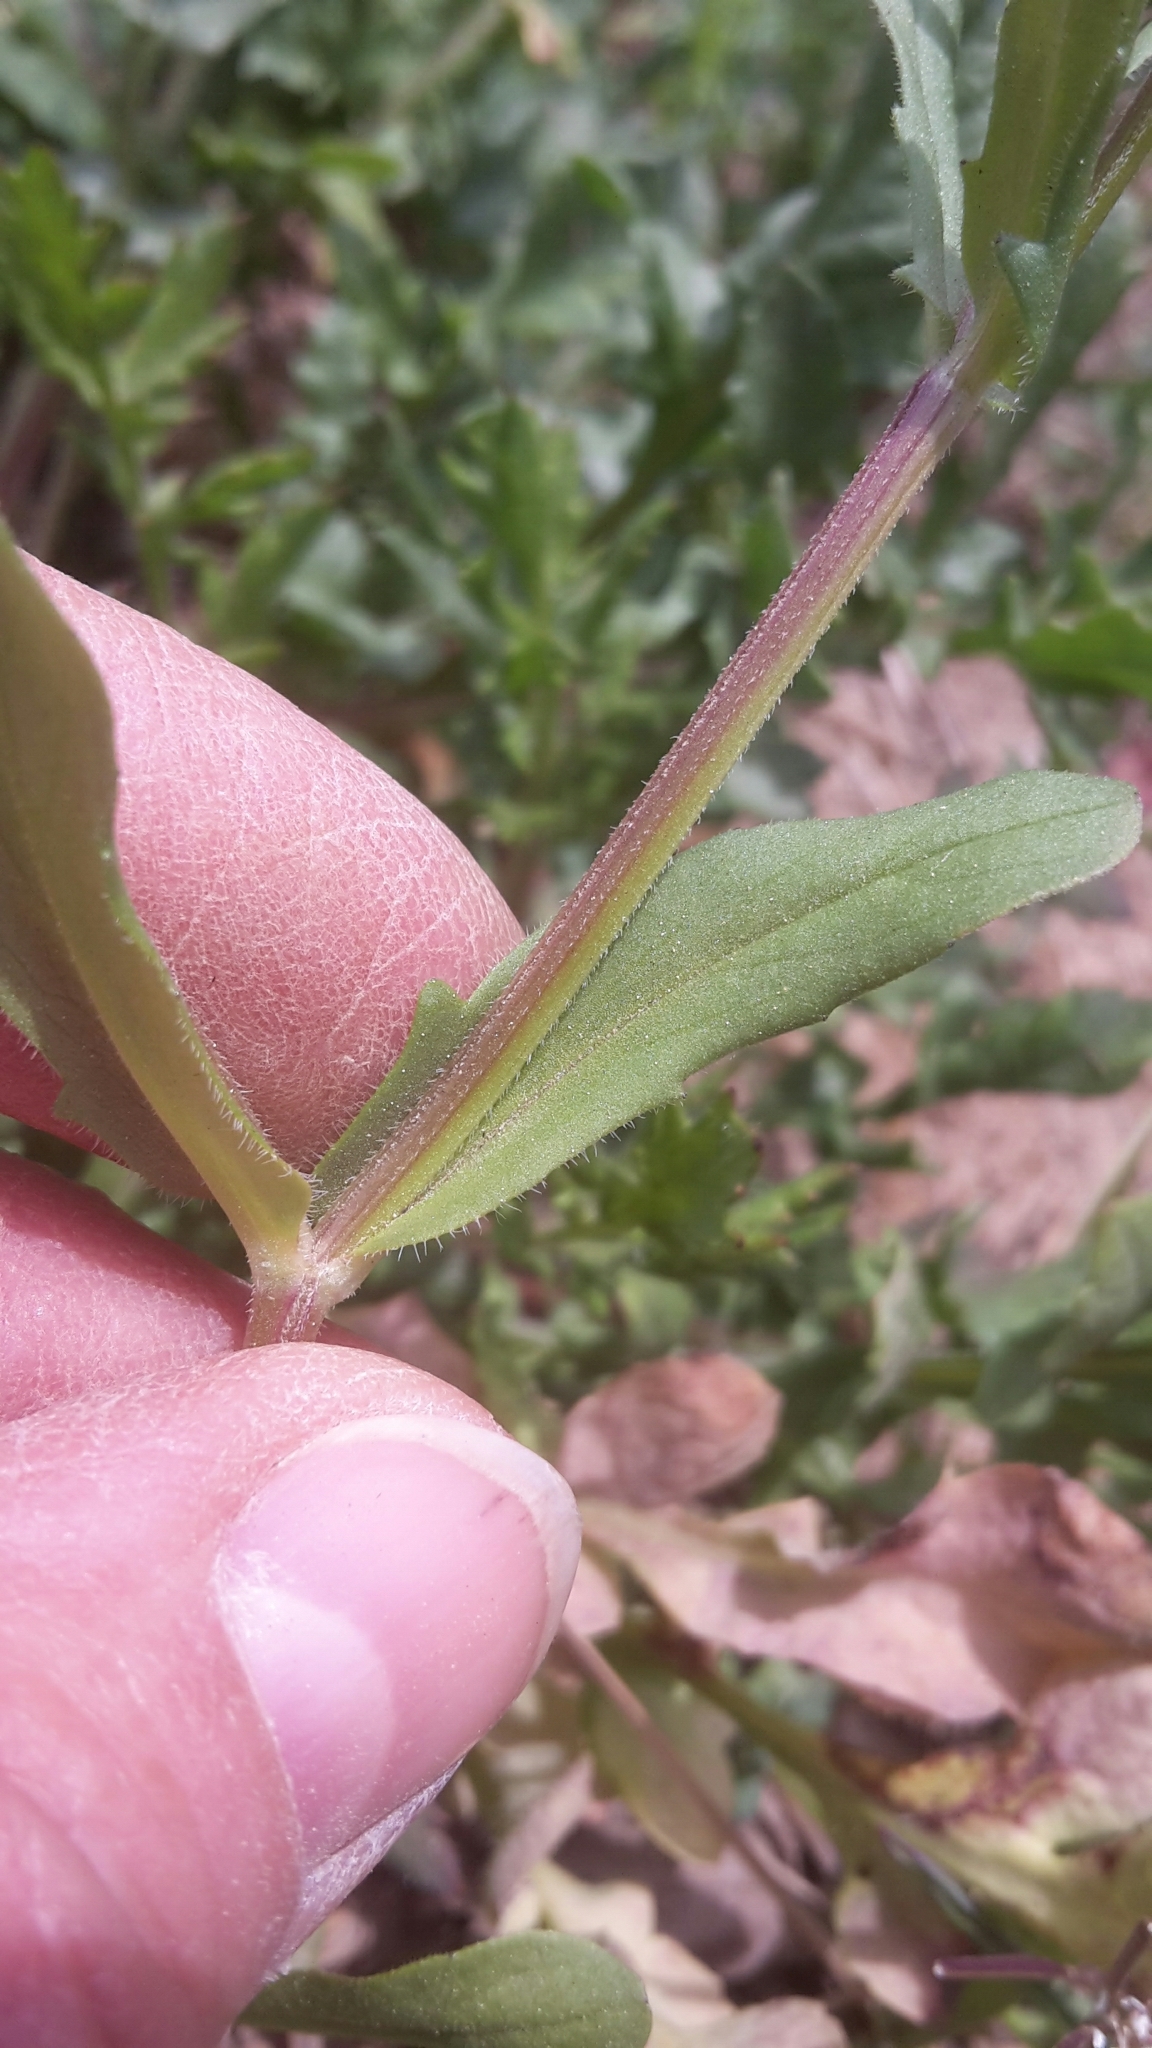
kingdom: Plantae
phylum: Tracheophyta
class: Magnoliopsida
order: Dipsacales
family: Caprifoliaceae
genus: Valerianella
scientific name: Valerianella
